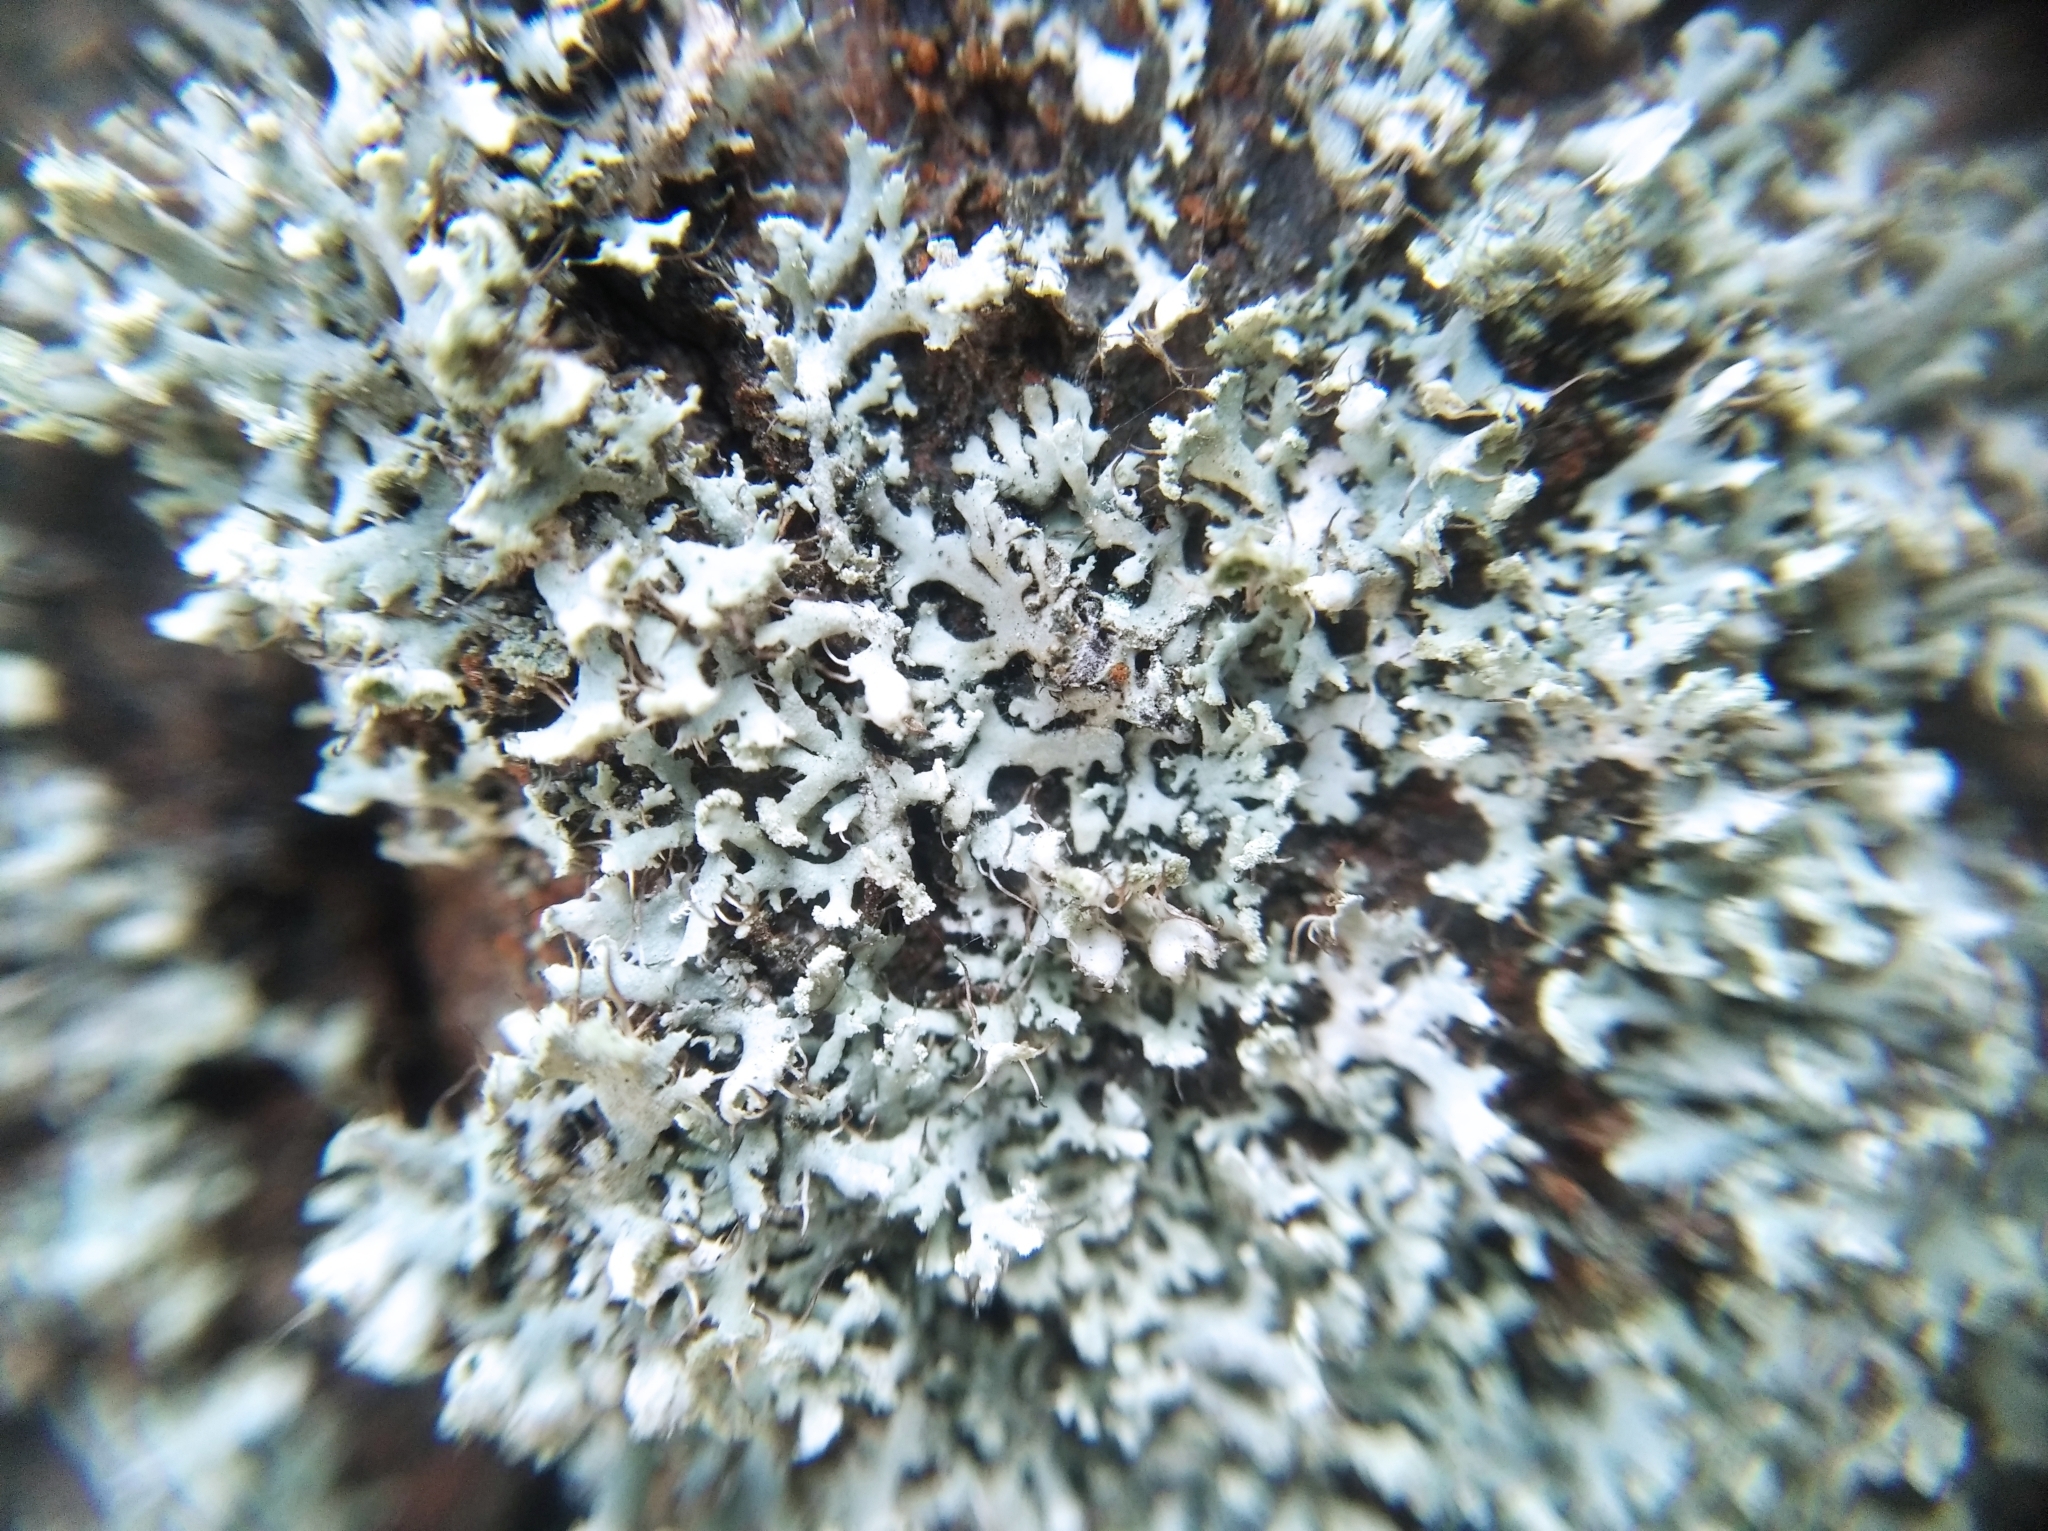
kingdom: Fungi
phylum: Ascomycota
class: Lecanoromycetes
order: Caliciales
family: Physciaceae
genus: Physcia
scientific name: Physcia tenella
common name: Fringed rosette lichen
